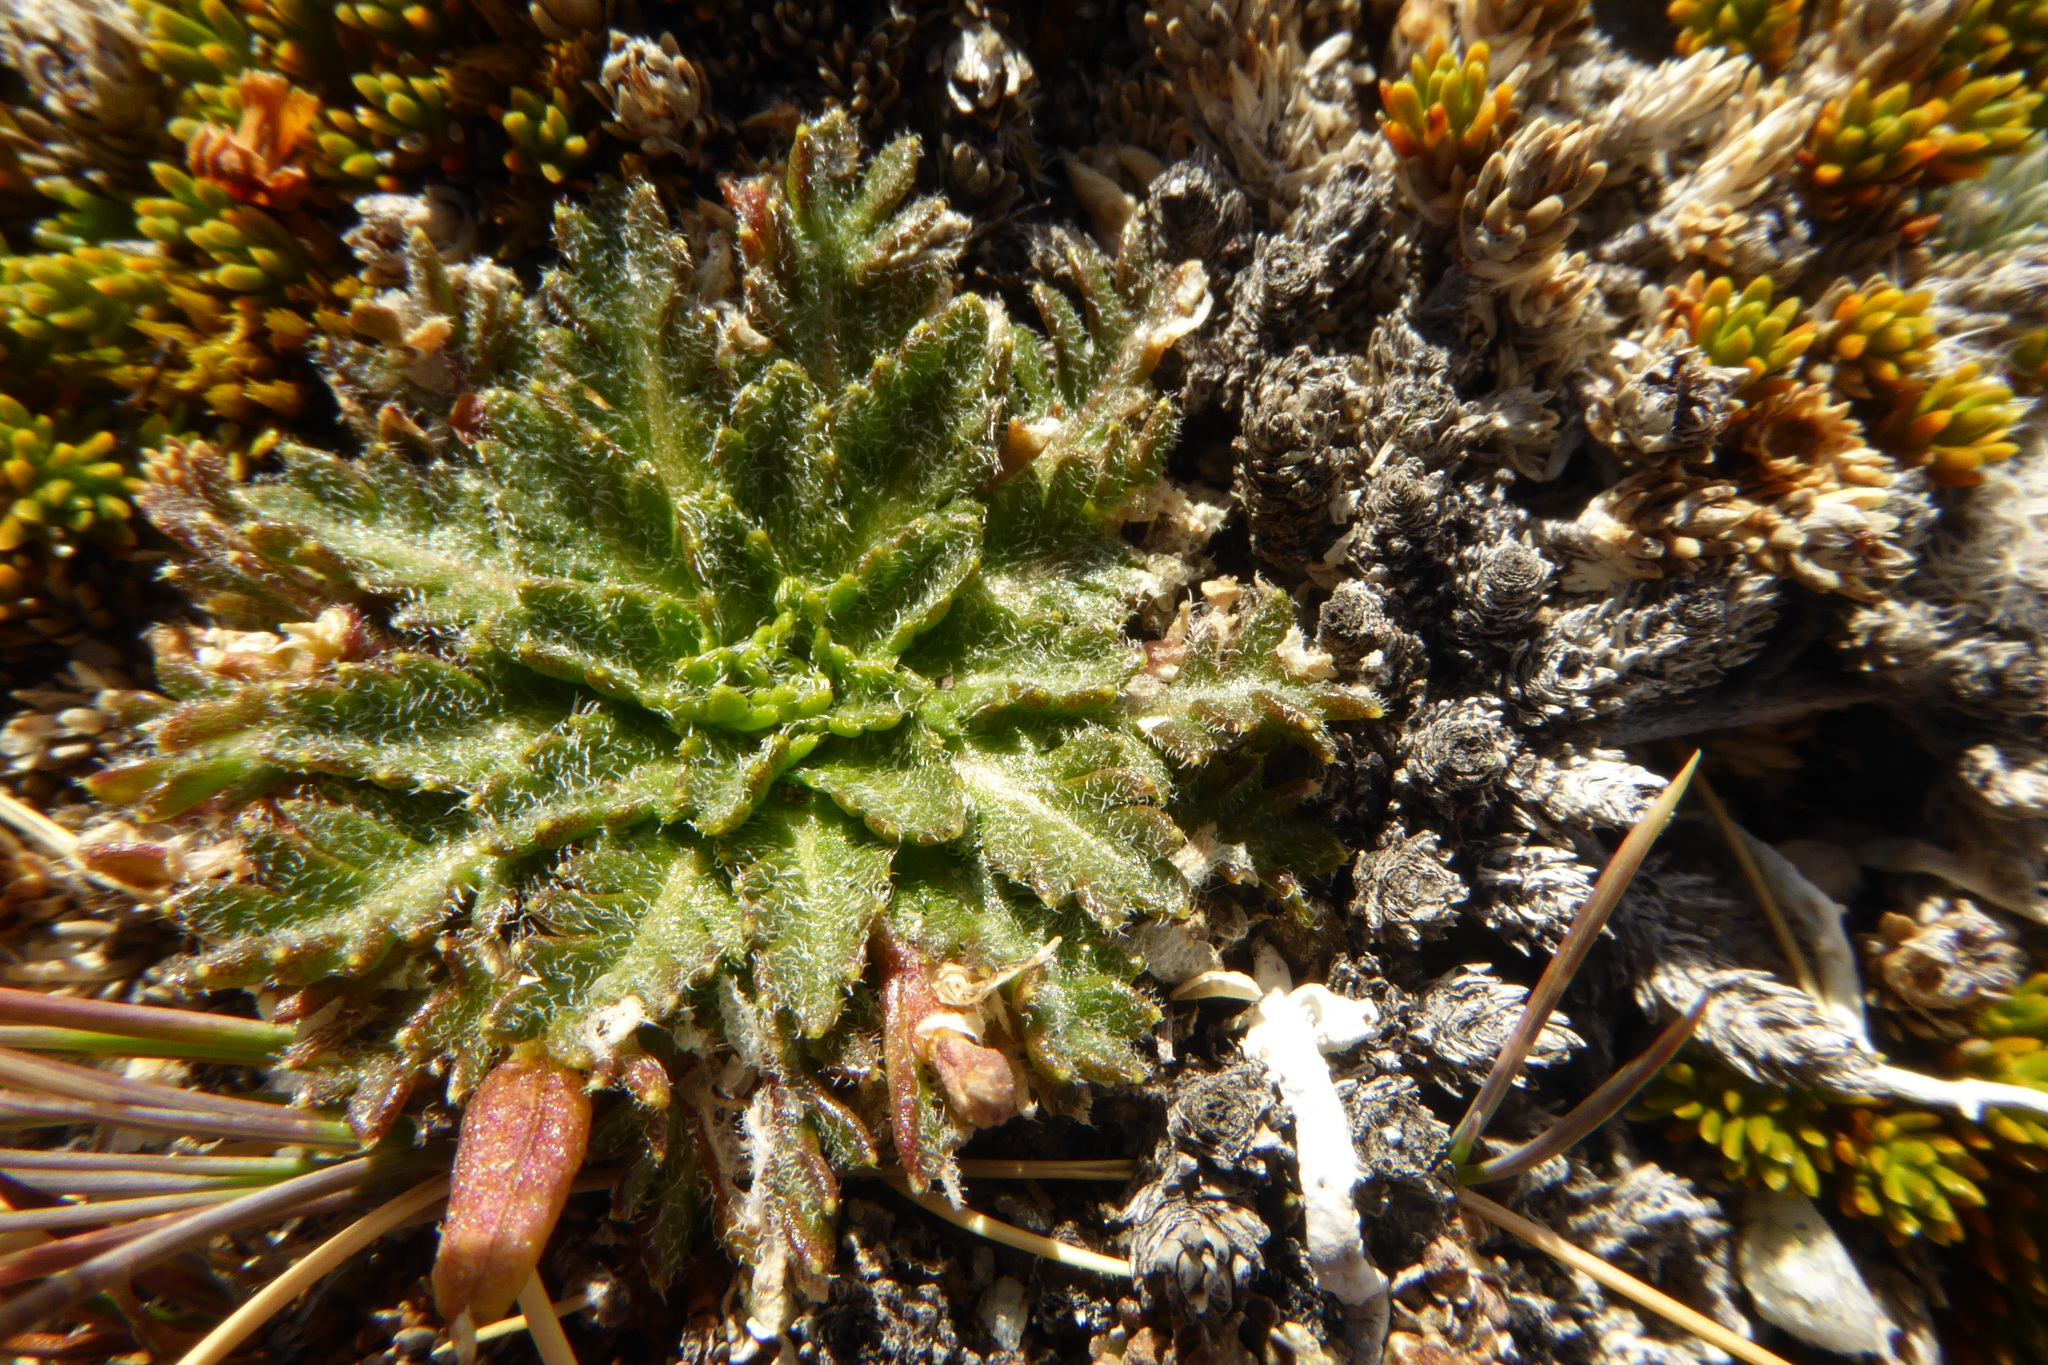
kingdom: Plantae
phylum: Tracheophyta
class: Magnoliopsida
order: Brassicales
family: Brassicaceae
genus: Pachycladon
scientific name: Pachycladon novae-zelandiae
